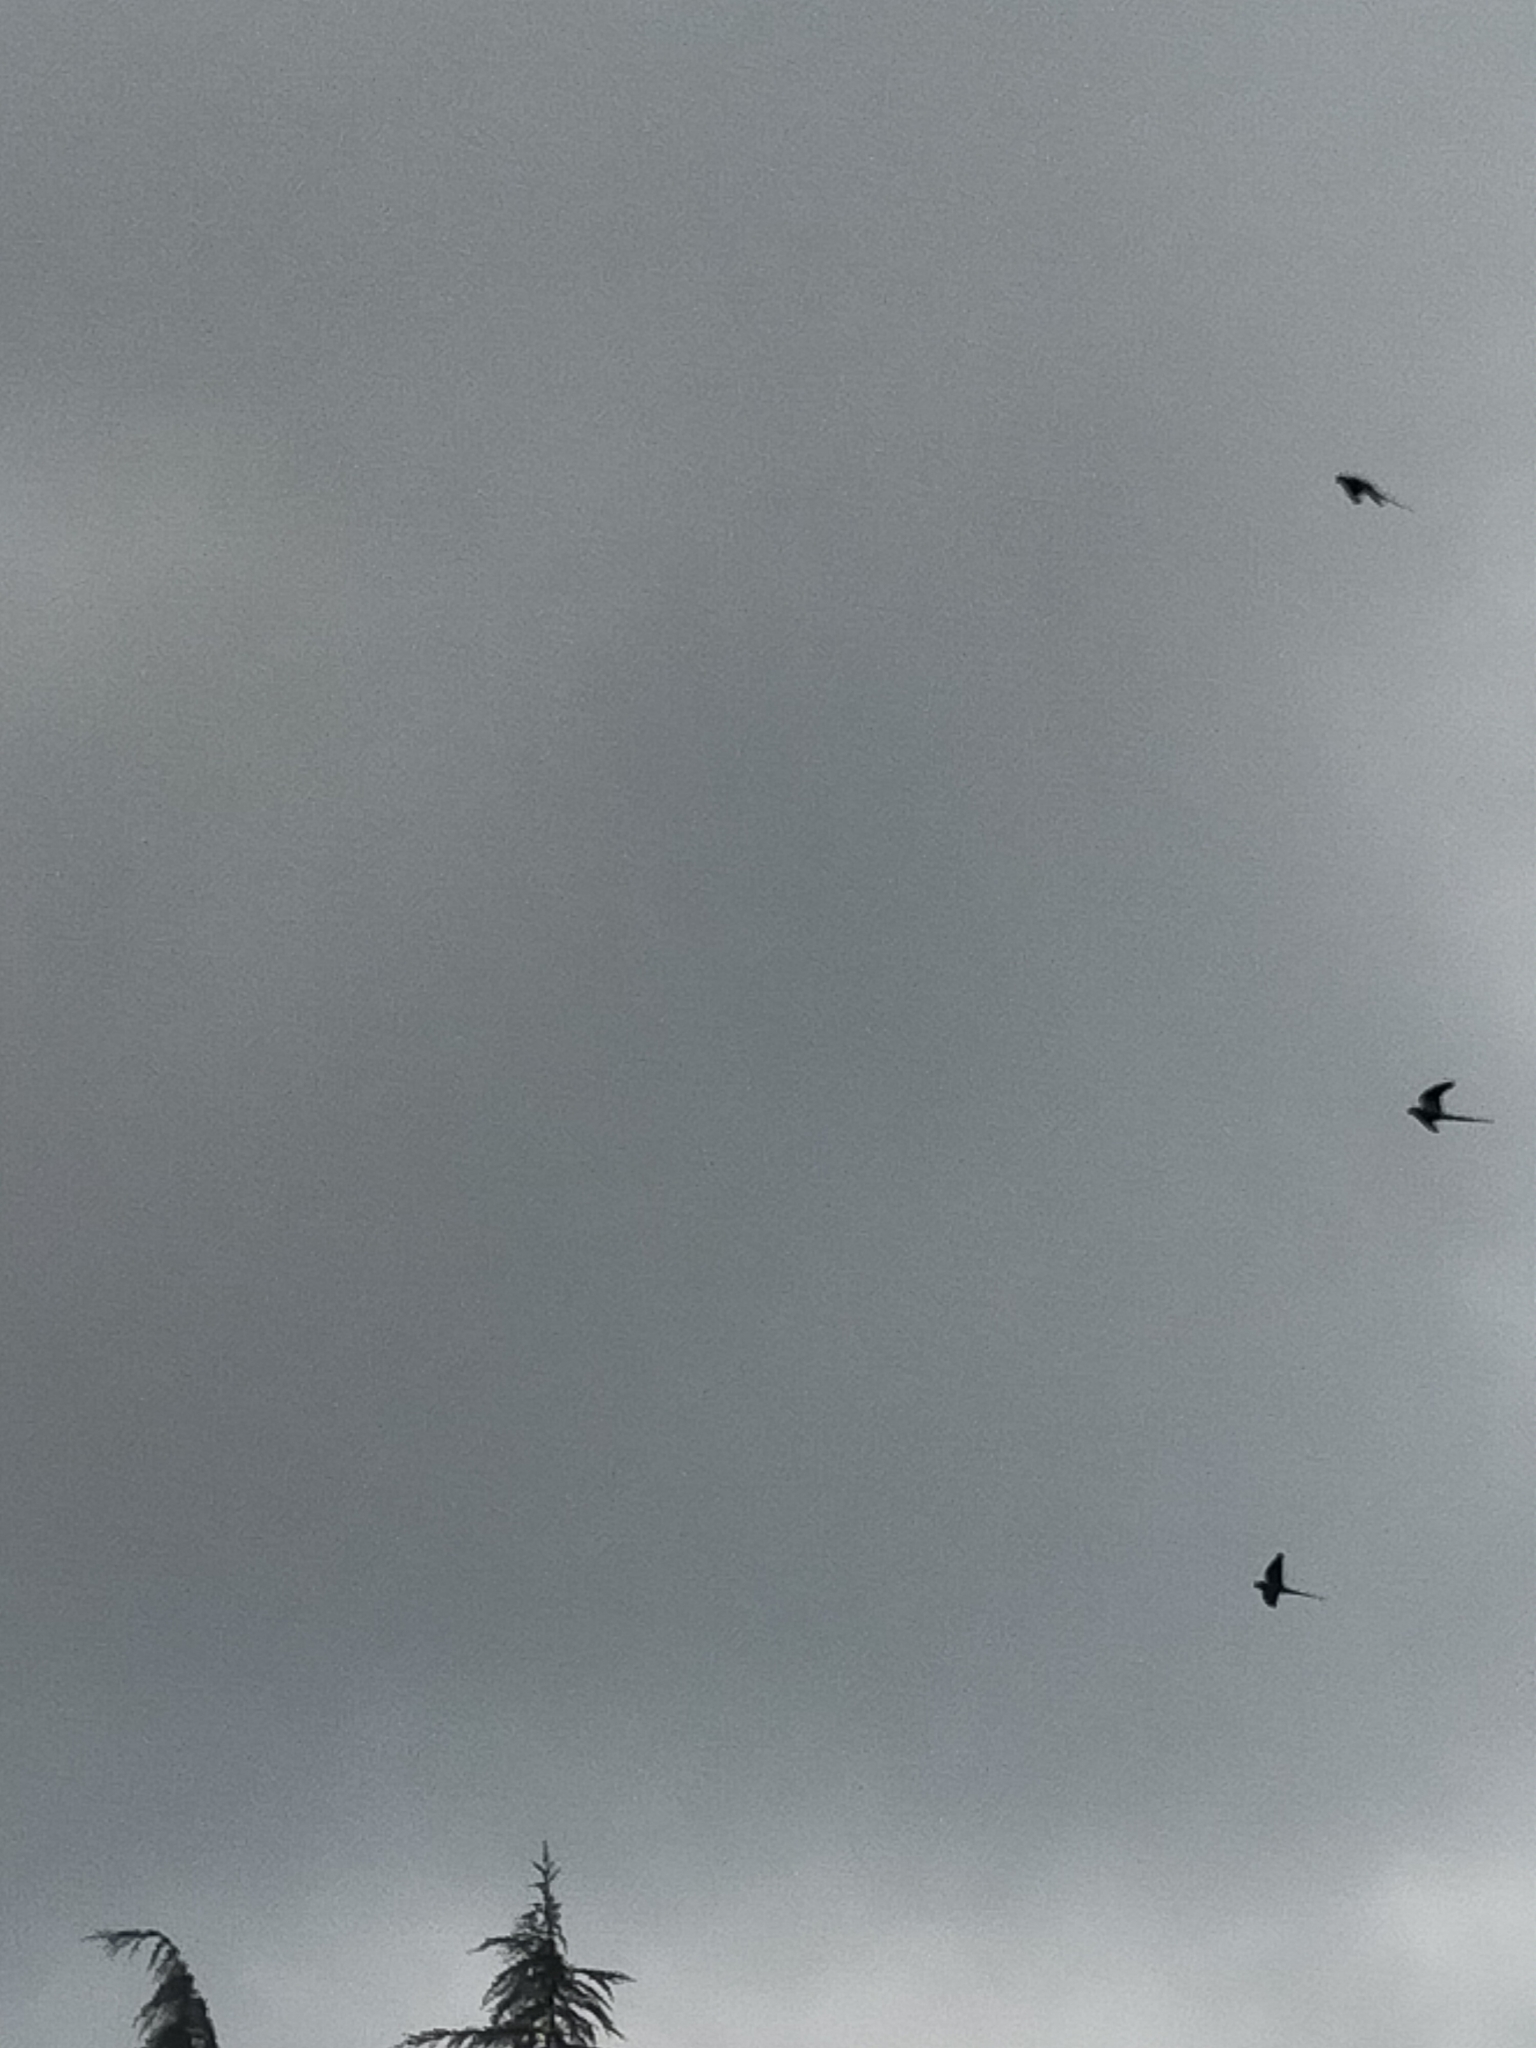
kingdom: Animalia
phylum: Chordata
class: Aves
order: Psittaciformes
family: Psittacidae
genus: Psittacula
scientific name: Psittacula krameri
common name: Rose-ringed parakeet
